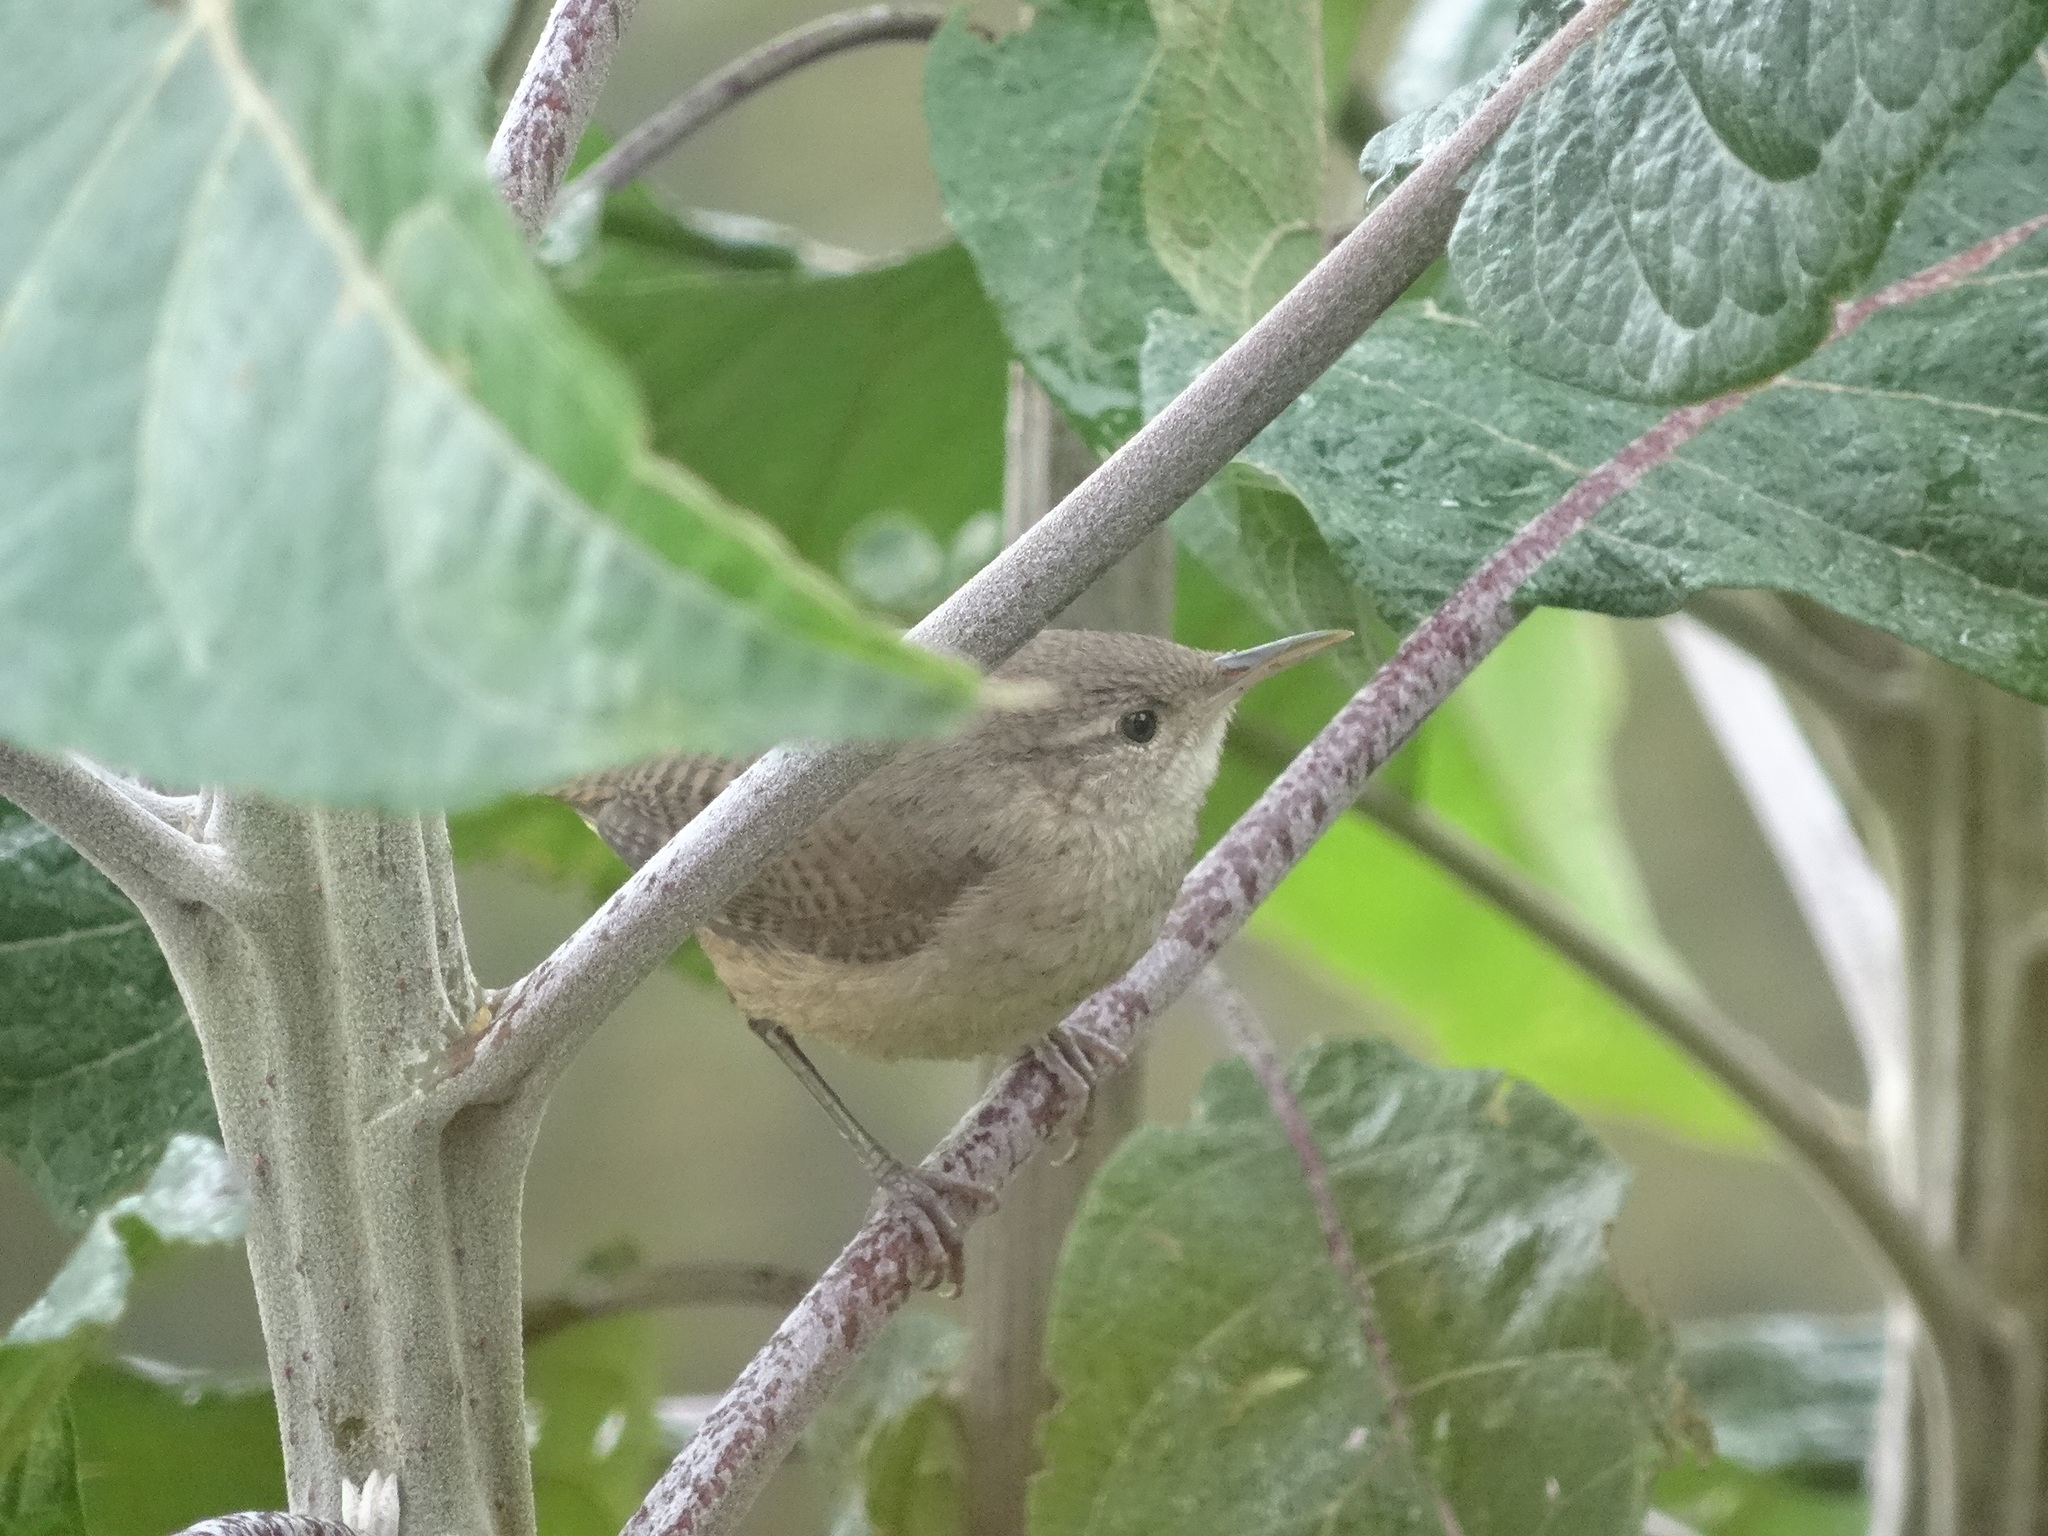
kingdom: Animalia
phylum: Chordata
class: Aves
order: Passeriformes
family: Troglodytidae
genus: Troglodytes
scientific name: Troglodytes aedon
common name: House wren
